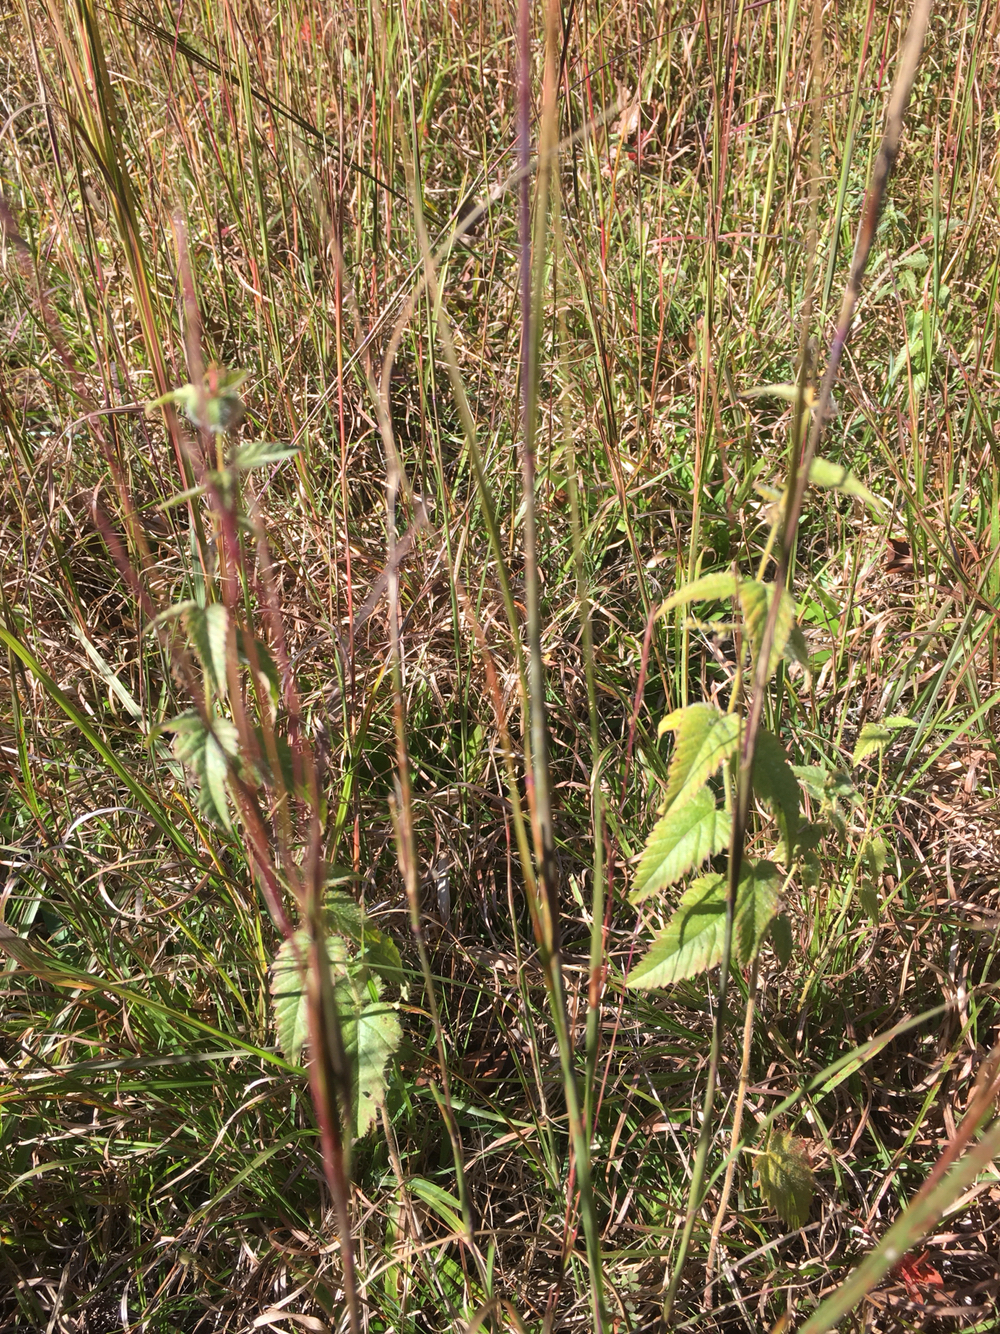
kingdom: Plantae
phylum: Tracheophyta
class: Magnoliopsida
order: Malpighiales
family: Euphorbiaceae
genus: Tragia
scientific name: Tragia urticifolia
